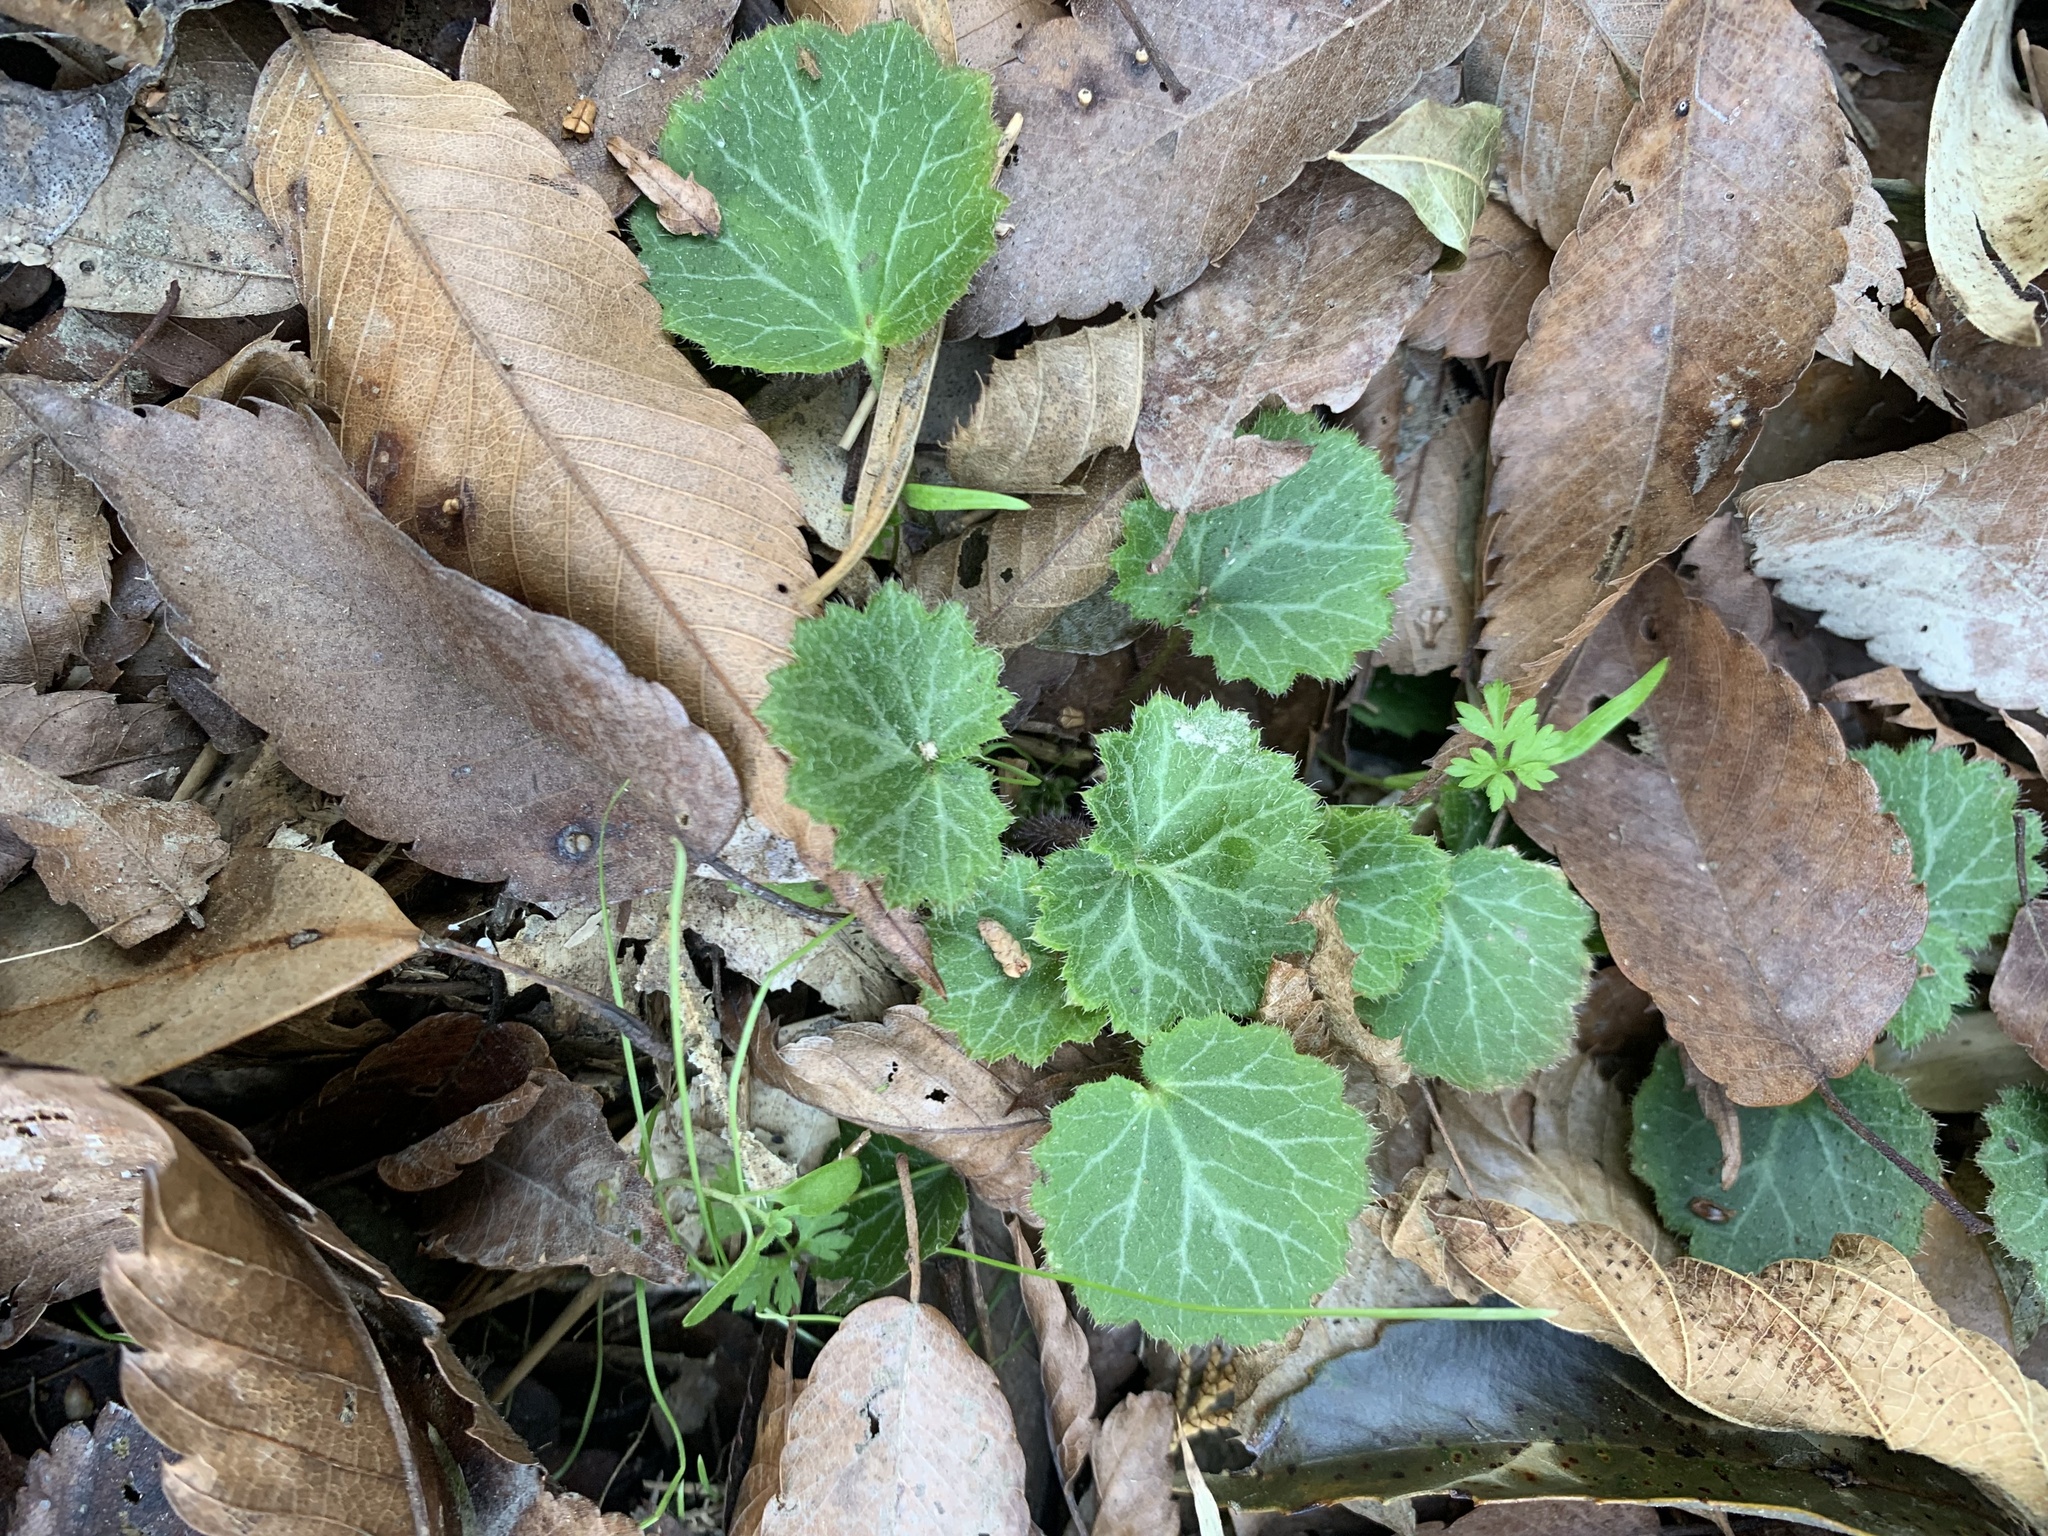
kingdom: Plantae
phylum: Tracheophyta
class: Magnoliopsida
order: Saxifragales
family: Saxifragaceae
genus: Saxifraga
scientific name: Saxifraga stolonifera
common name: Creeping saxifrage
